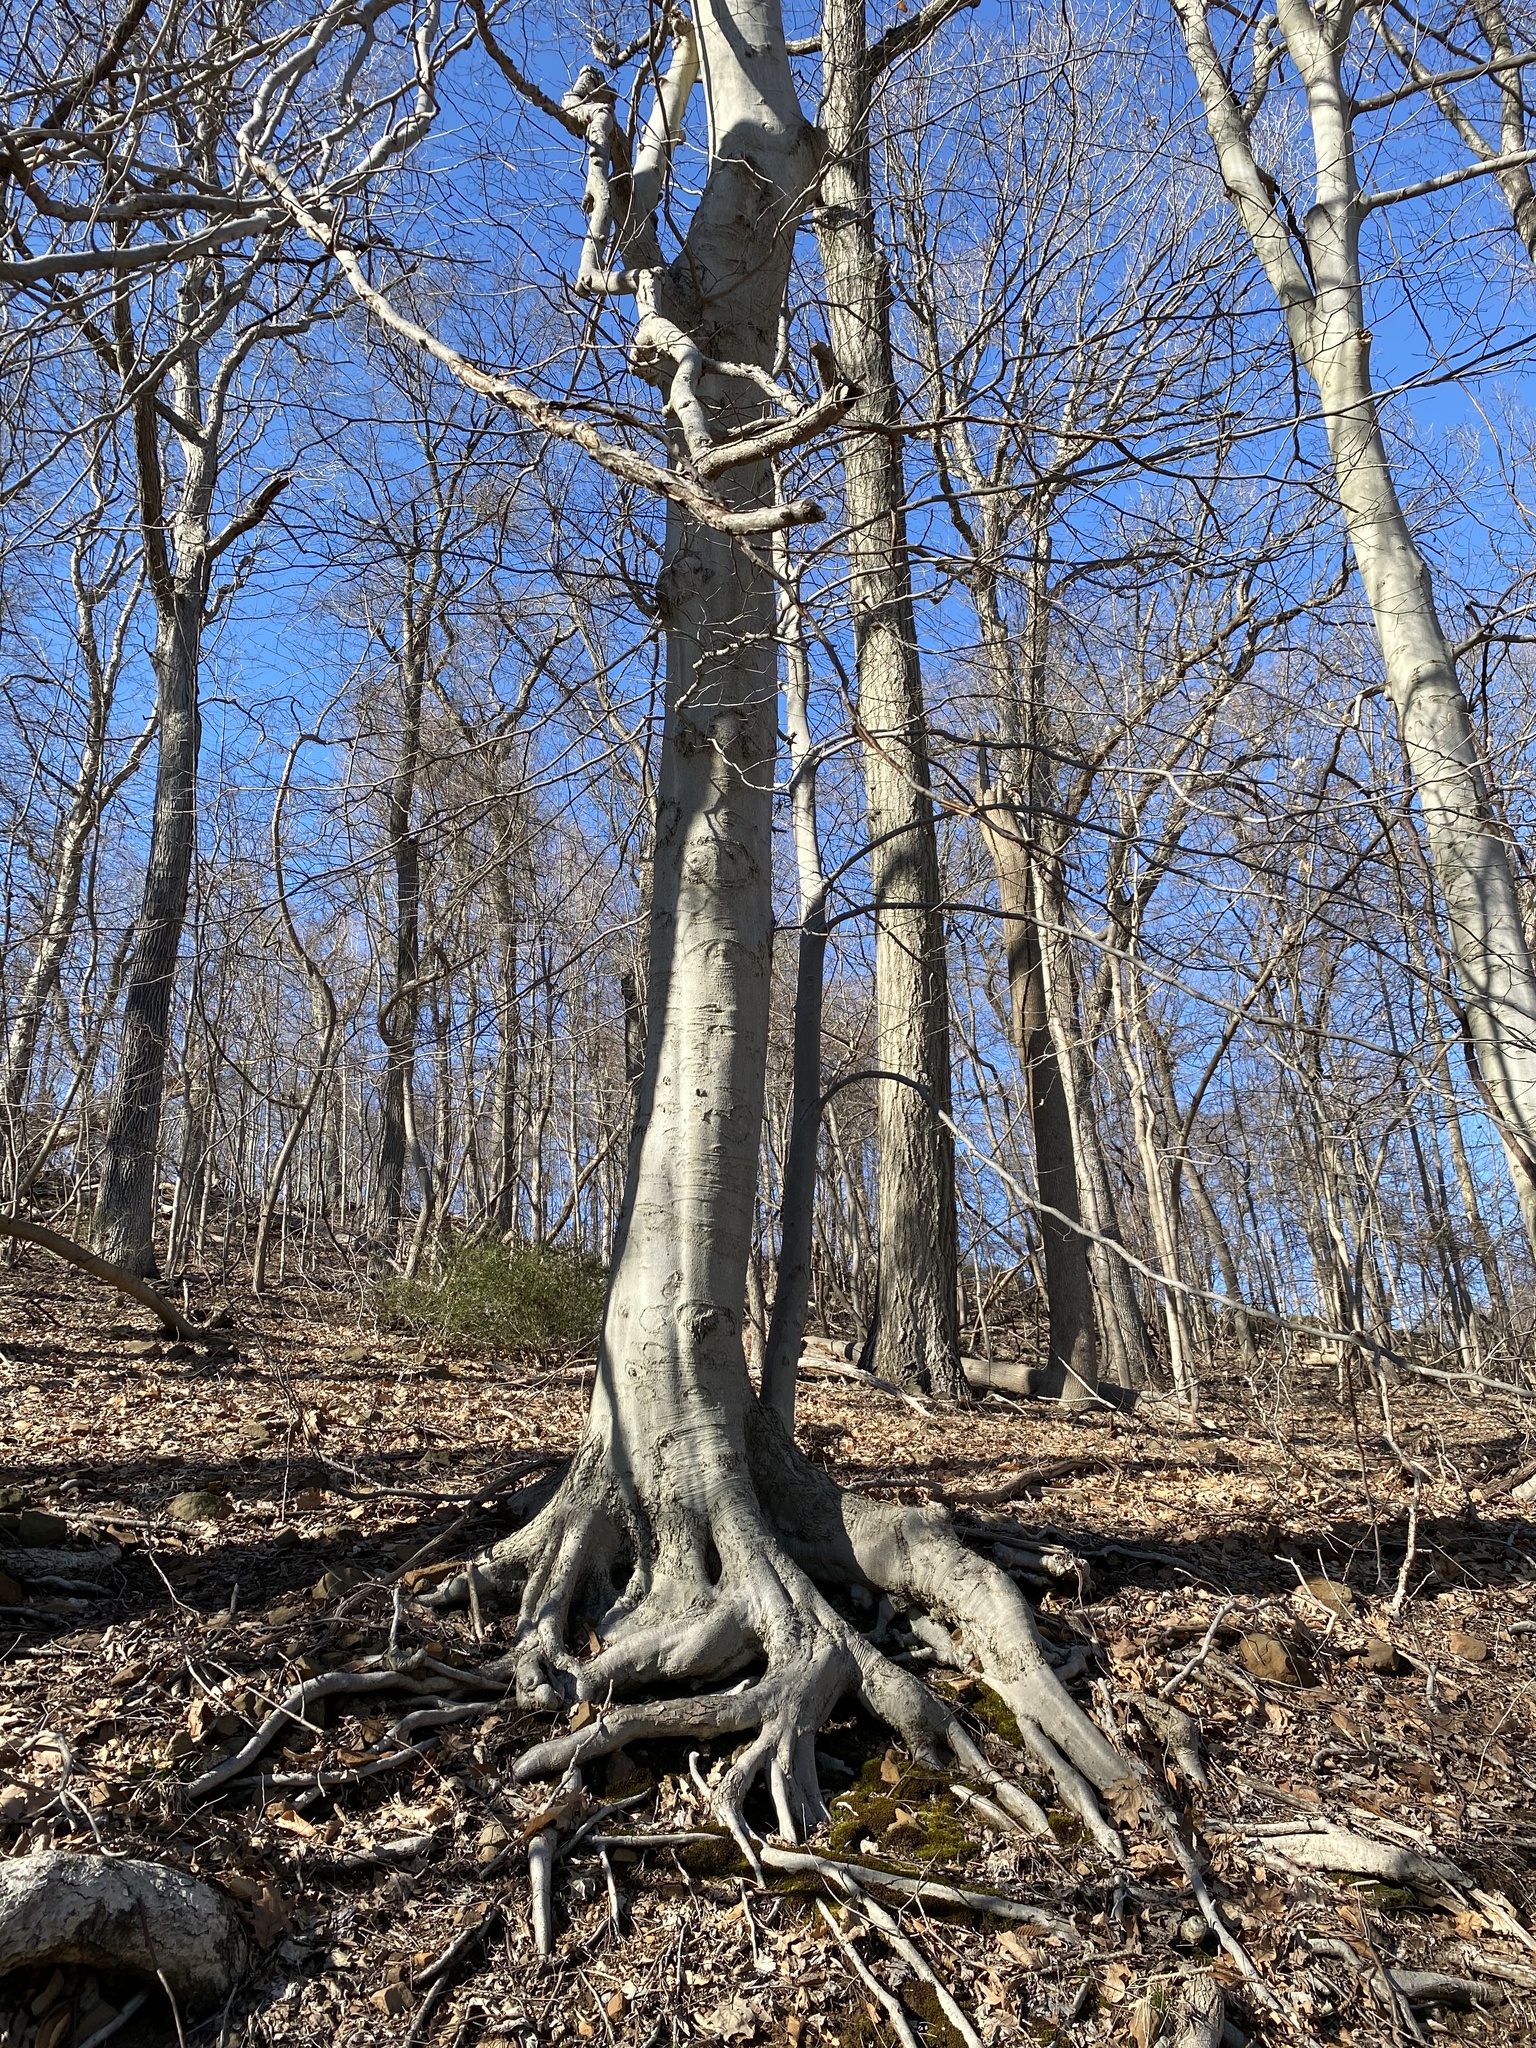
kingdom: Plantae
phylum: Tracheophyta
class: Magnoliopsida
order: Fagales
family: Fagaceae
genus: Fagus
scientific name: Fagus grandifolia
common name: American beech
